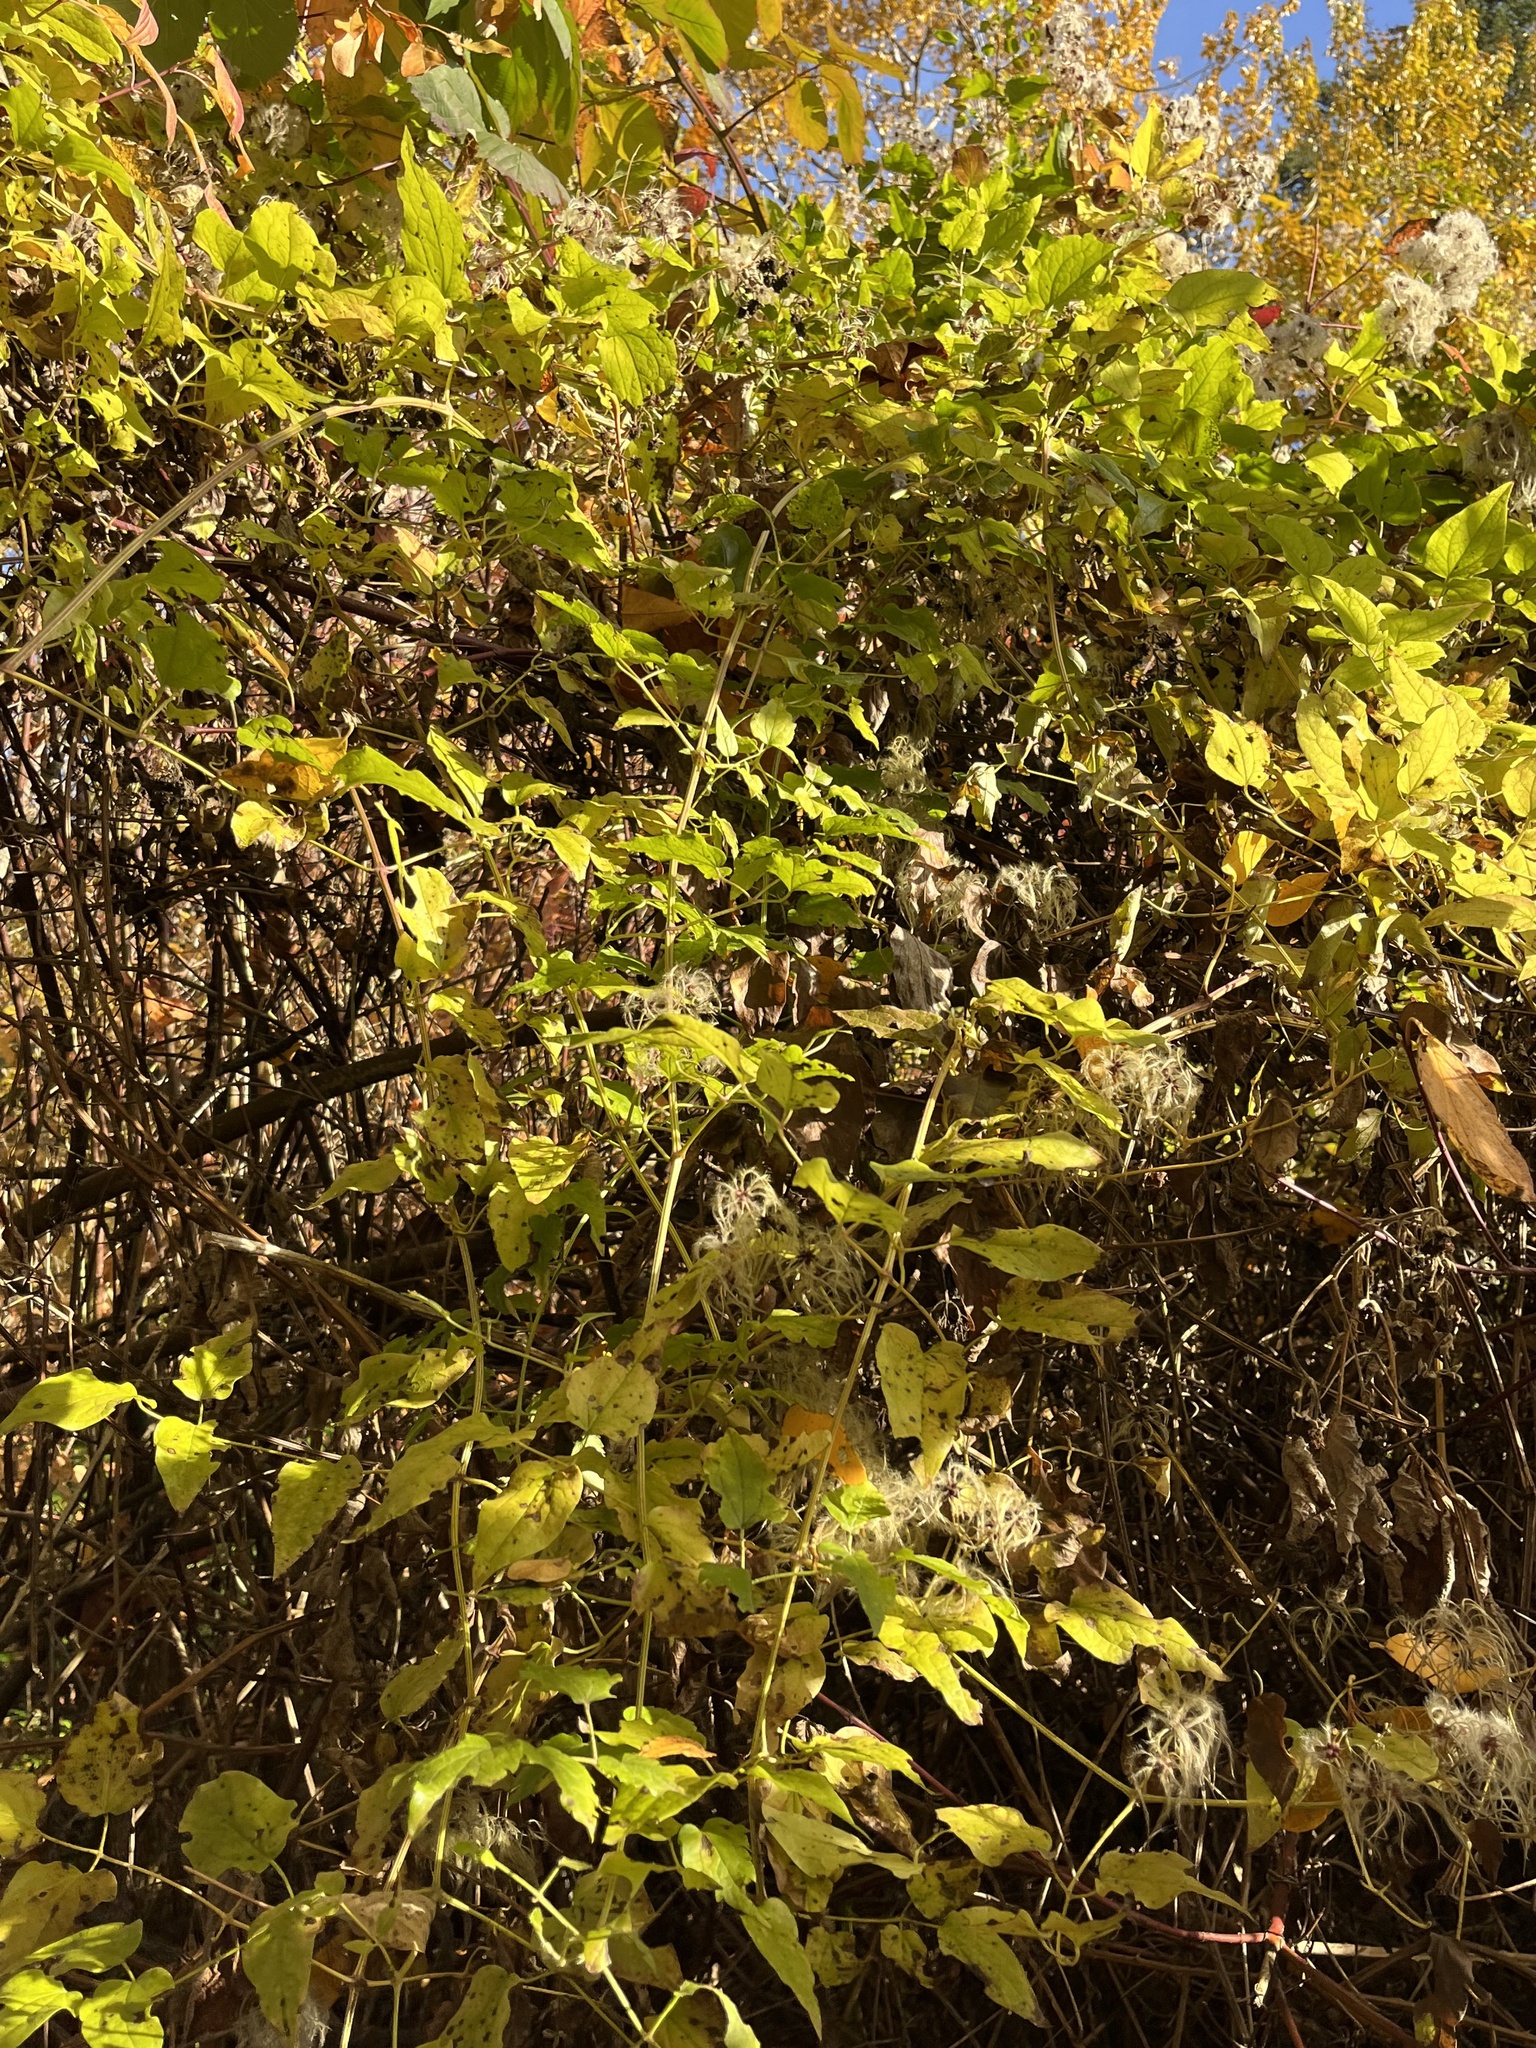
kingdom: Plantae
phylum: Tracheophyta
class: Magnoliopsida
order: Ranunculales
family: Ranunculaceae
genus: Clematis
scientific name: Clematis vitalba
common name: Evergreen clematis
